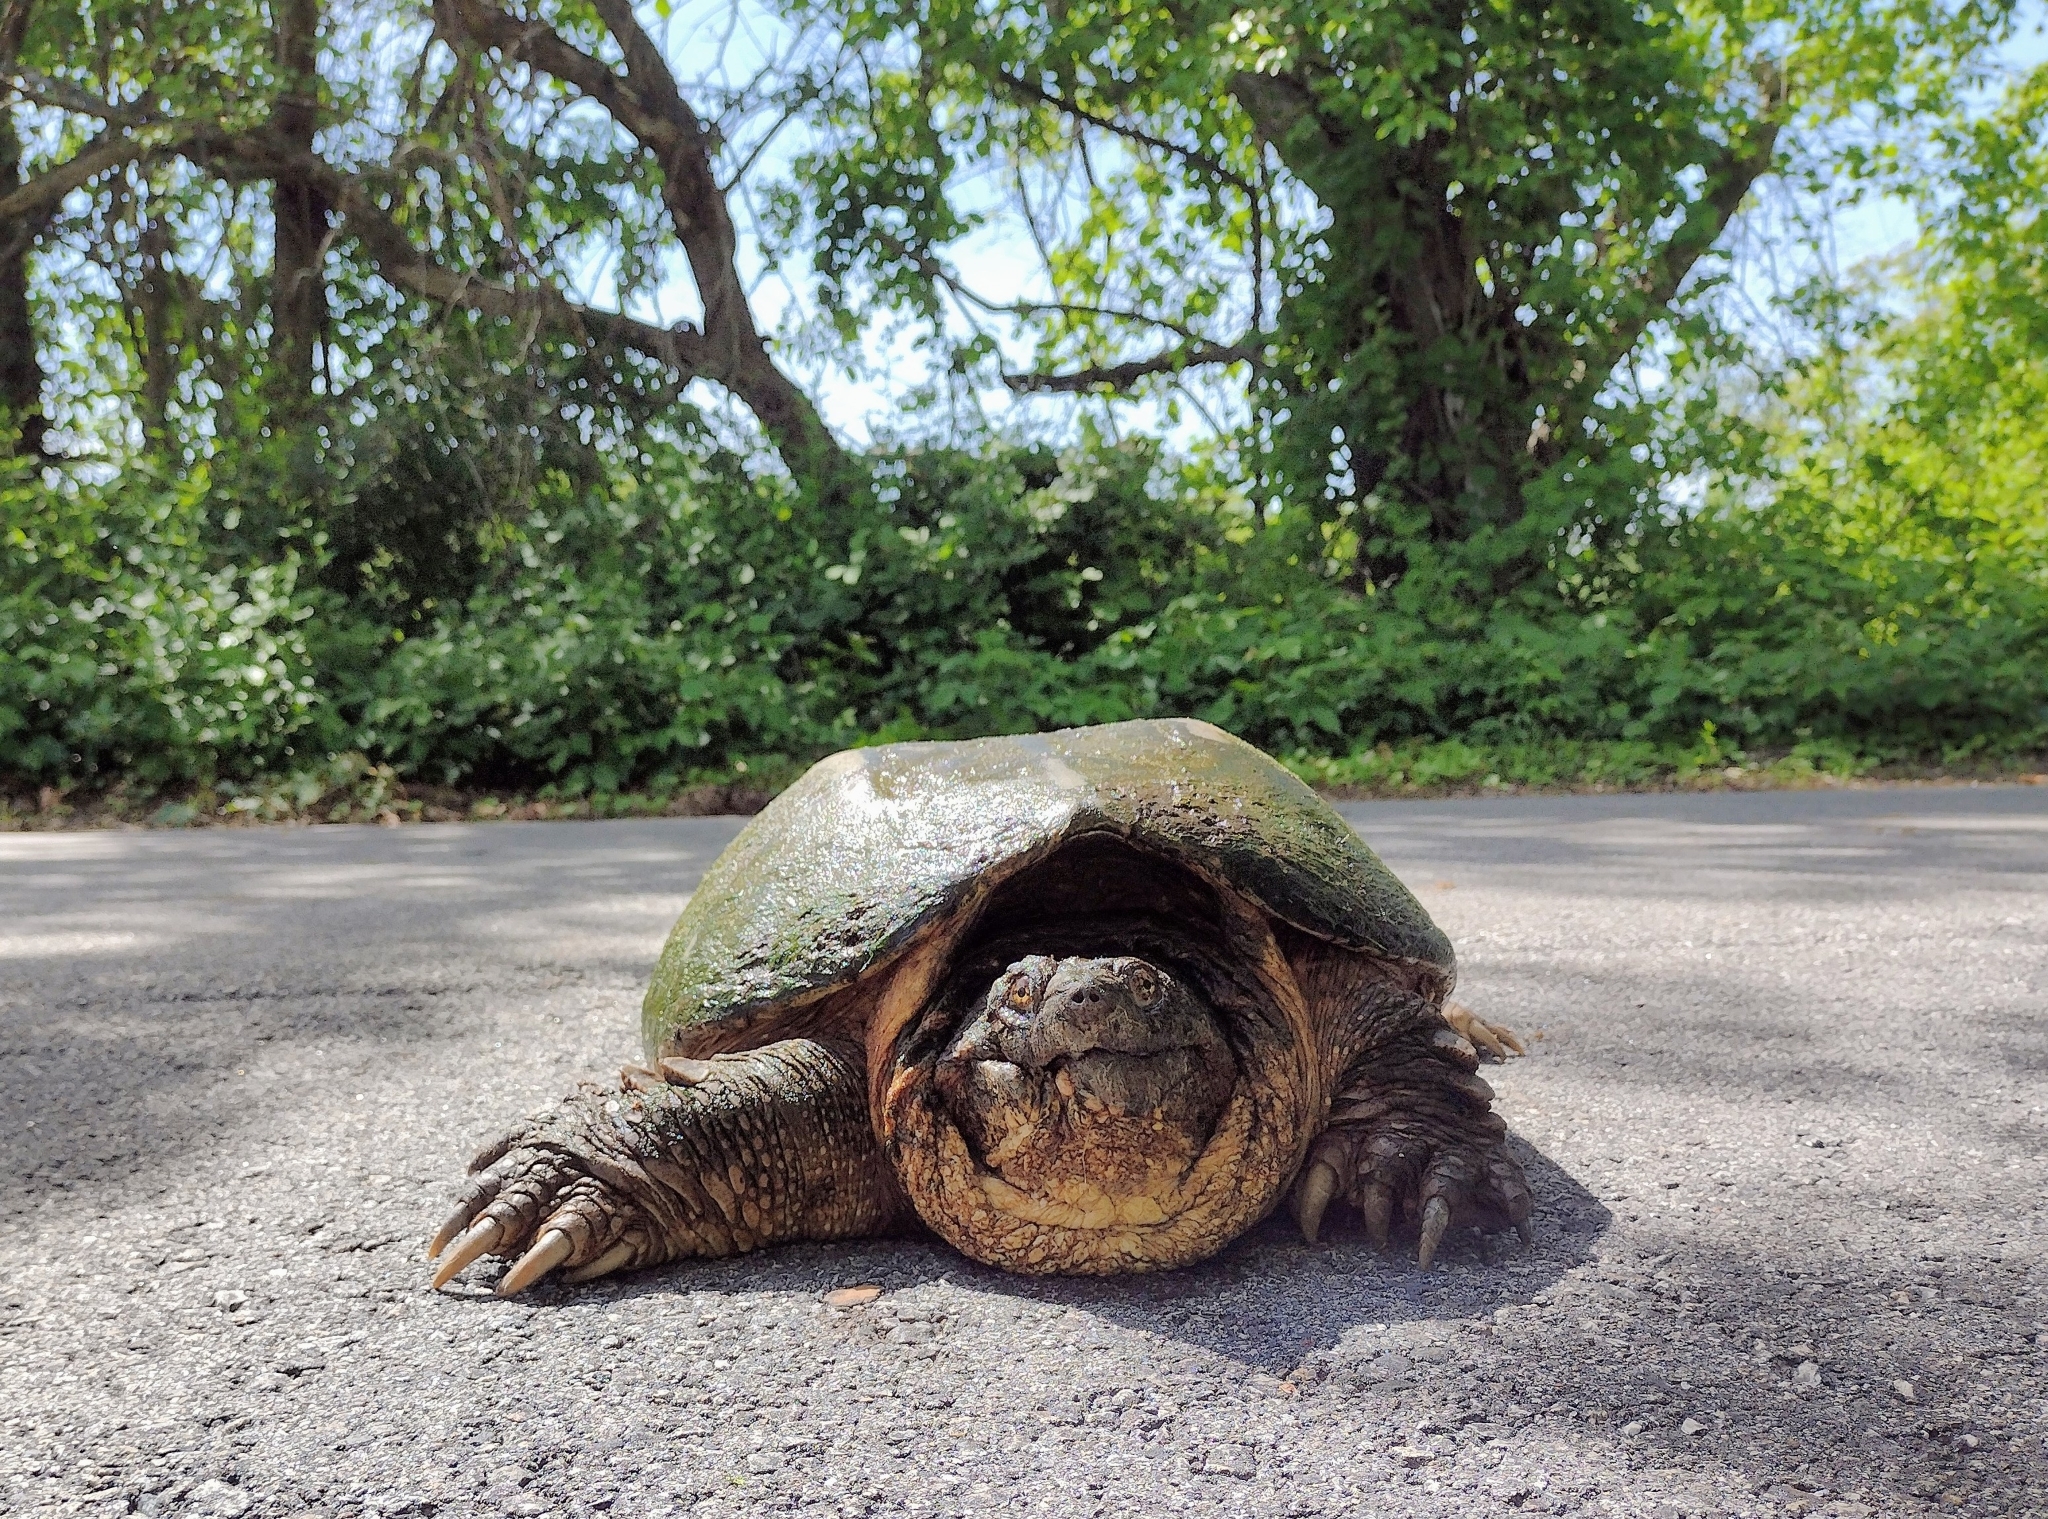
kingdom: Animalia
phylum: Chordata
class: Testudines
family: Chelydridae
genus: Chelydra
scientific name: Chelydra serpentina
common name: Common snapping turtle
